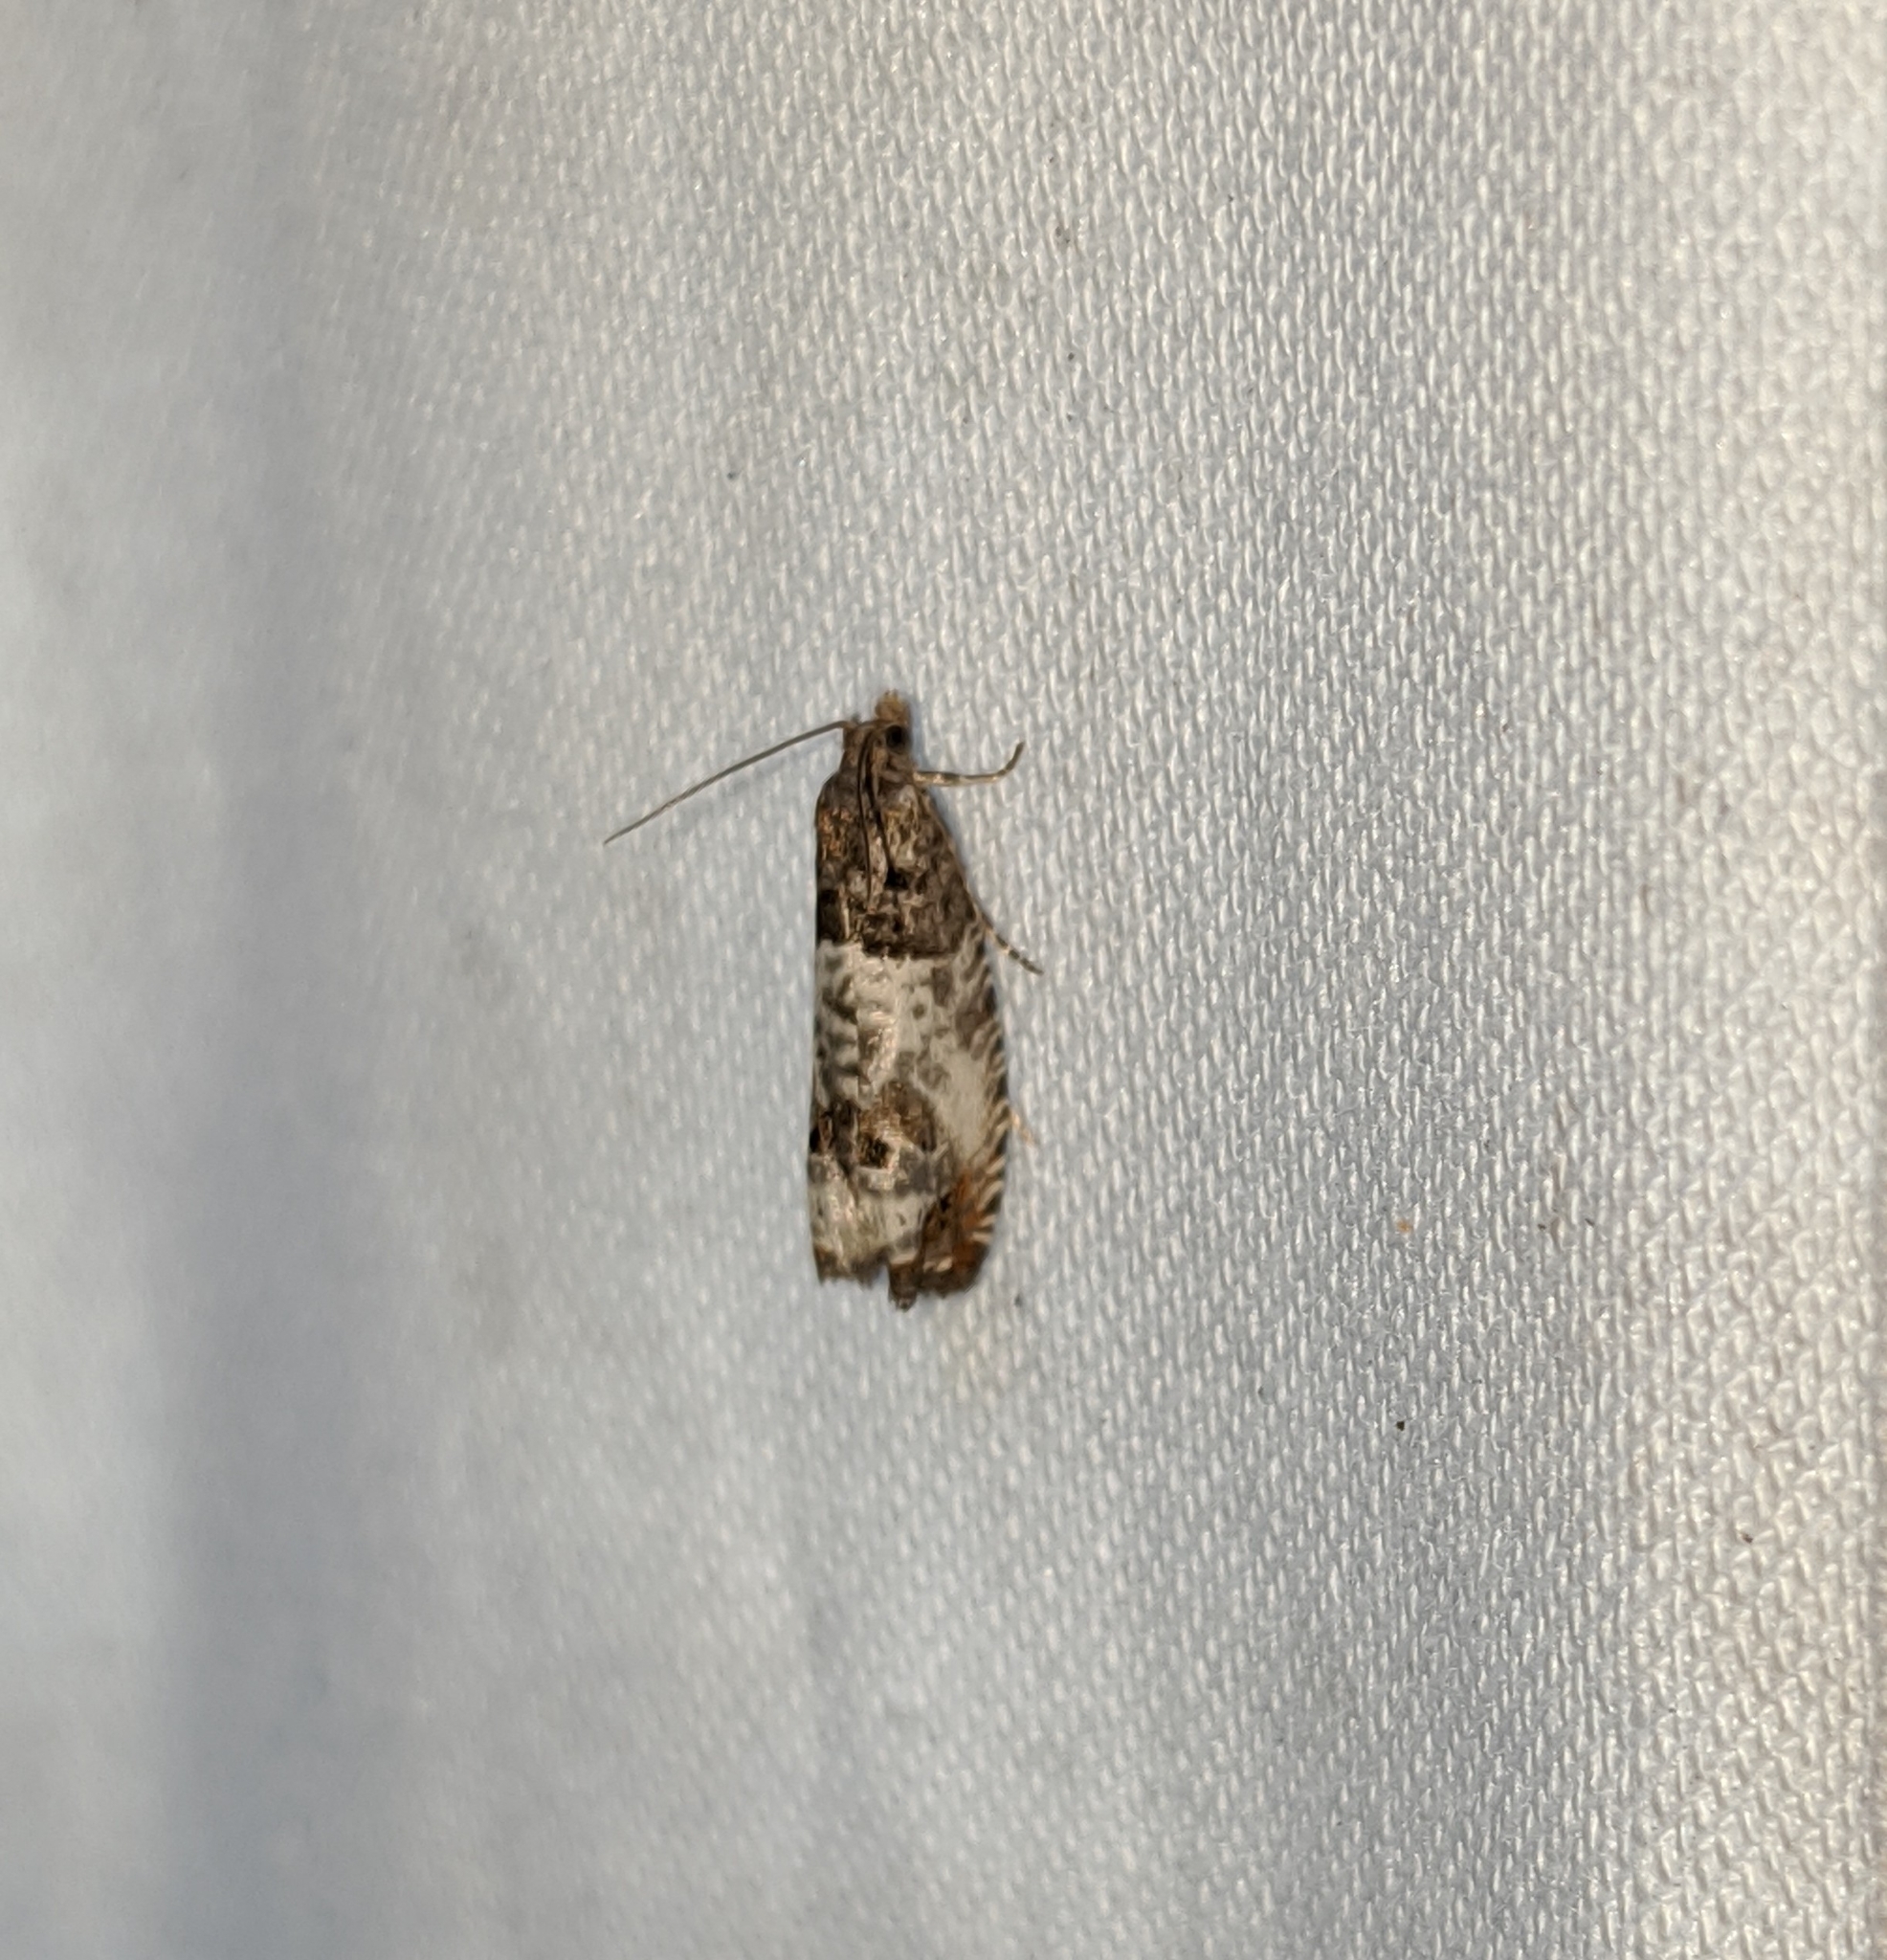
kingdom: Animalia
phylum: Arthropoda
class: Insecta
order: Lepidoptera
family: Tortricidae
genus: Notocelia
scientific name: Notocelia rosaecolana
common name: Common rose bell
